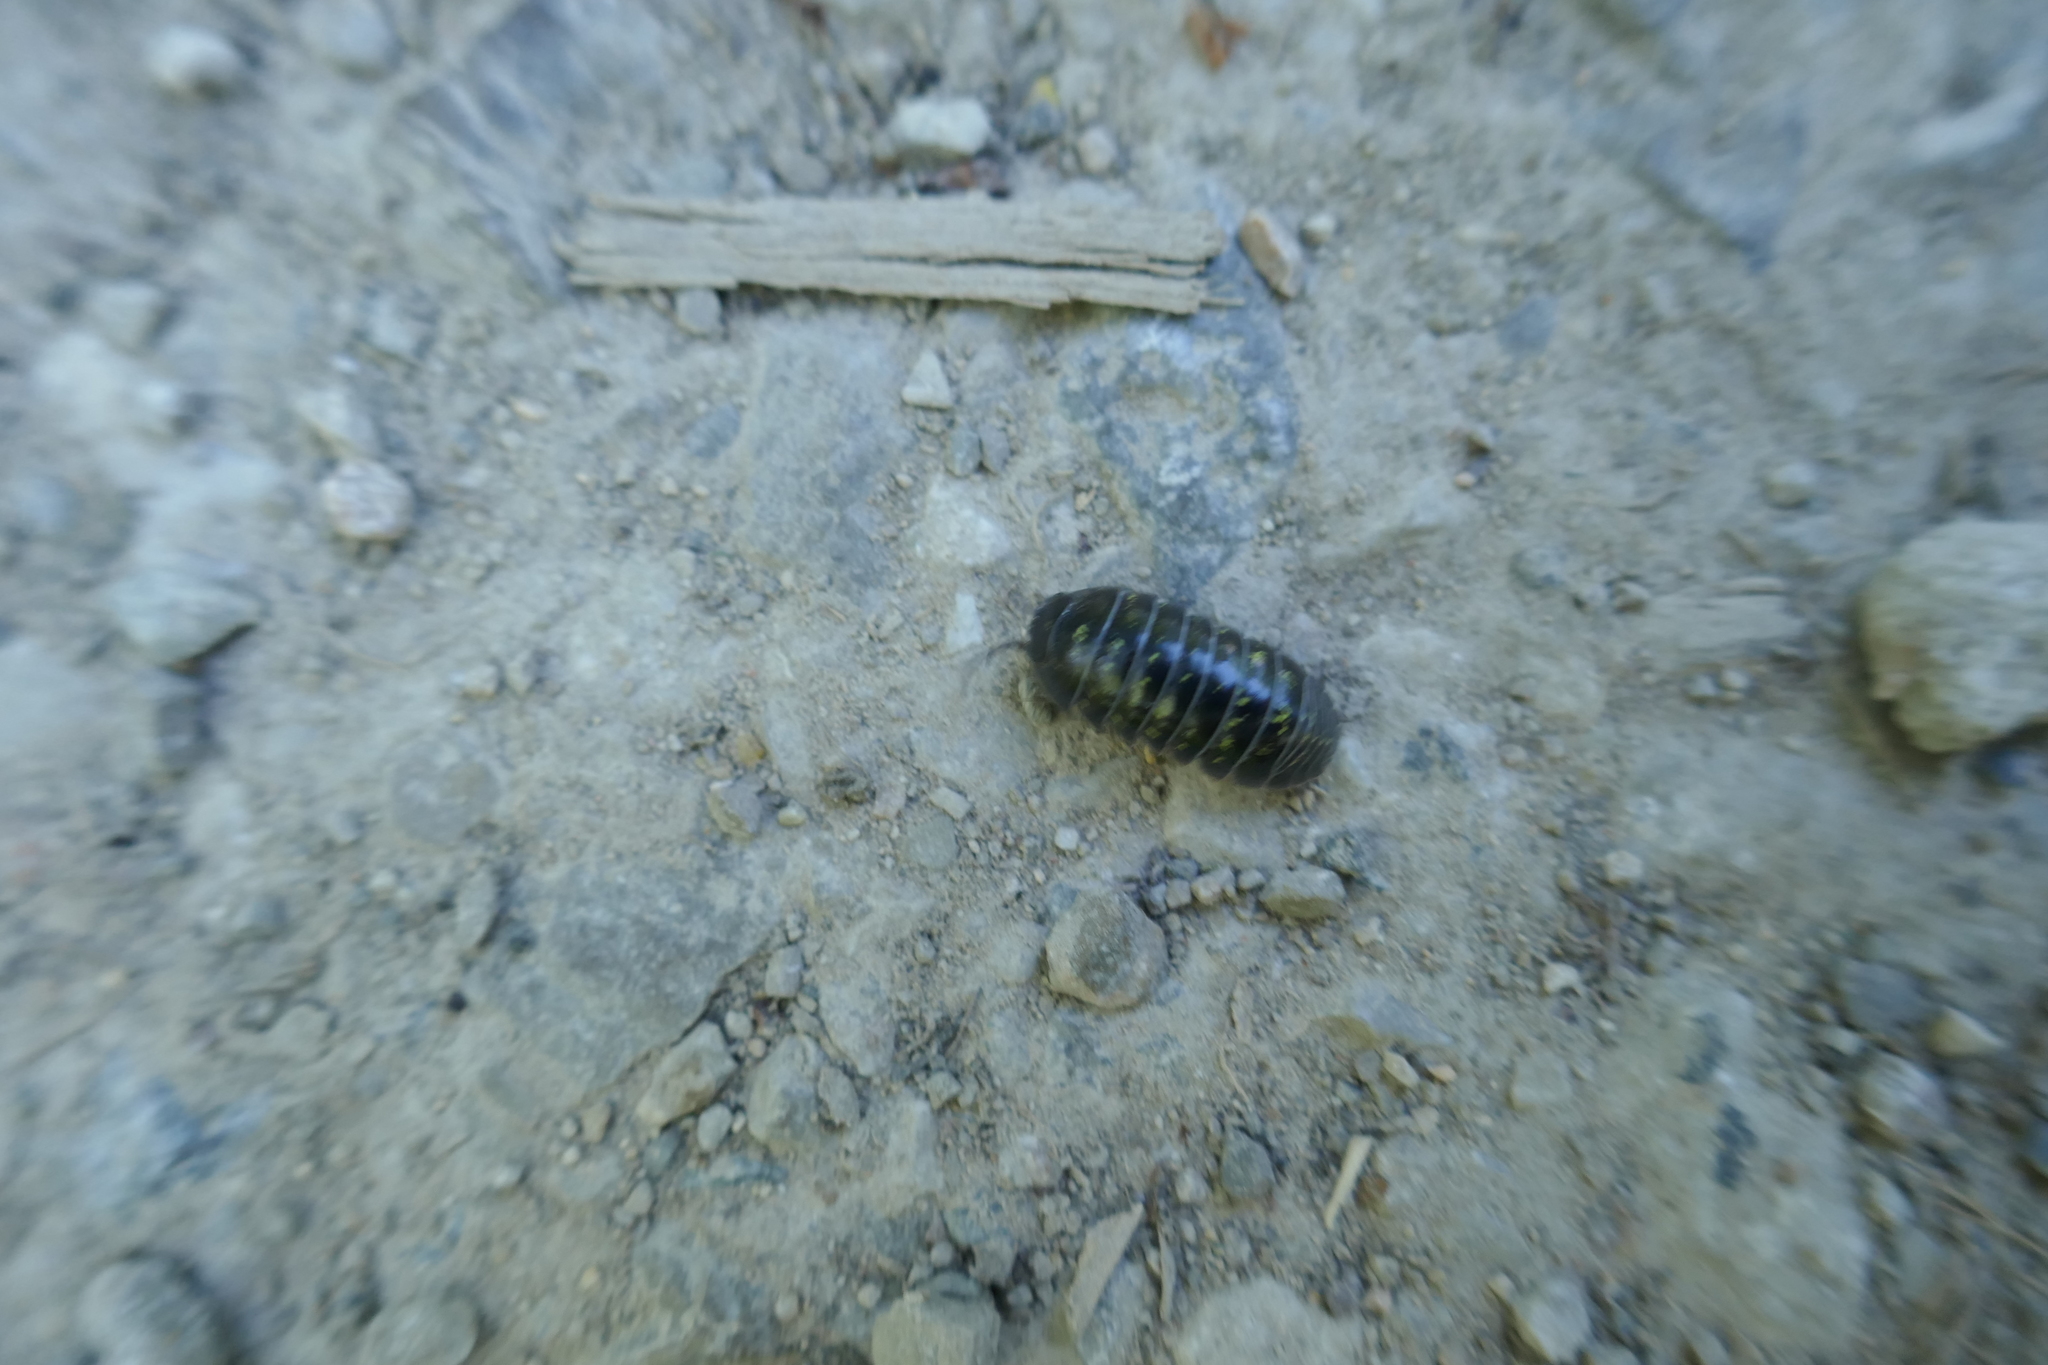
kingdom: Animalia
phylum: Arthropoda
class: Malacostraca
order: Isopoda
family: Armadillidiidae
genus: Armadillidium
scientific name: Armadillidium vulgare
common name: Common pill woodlouse
